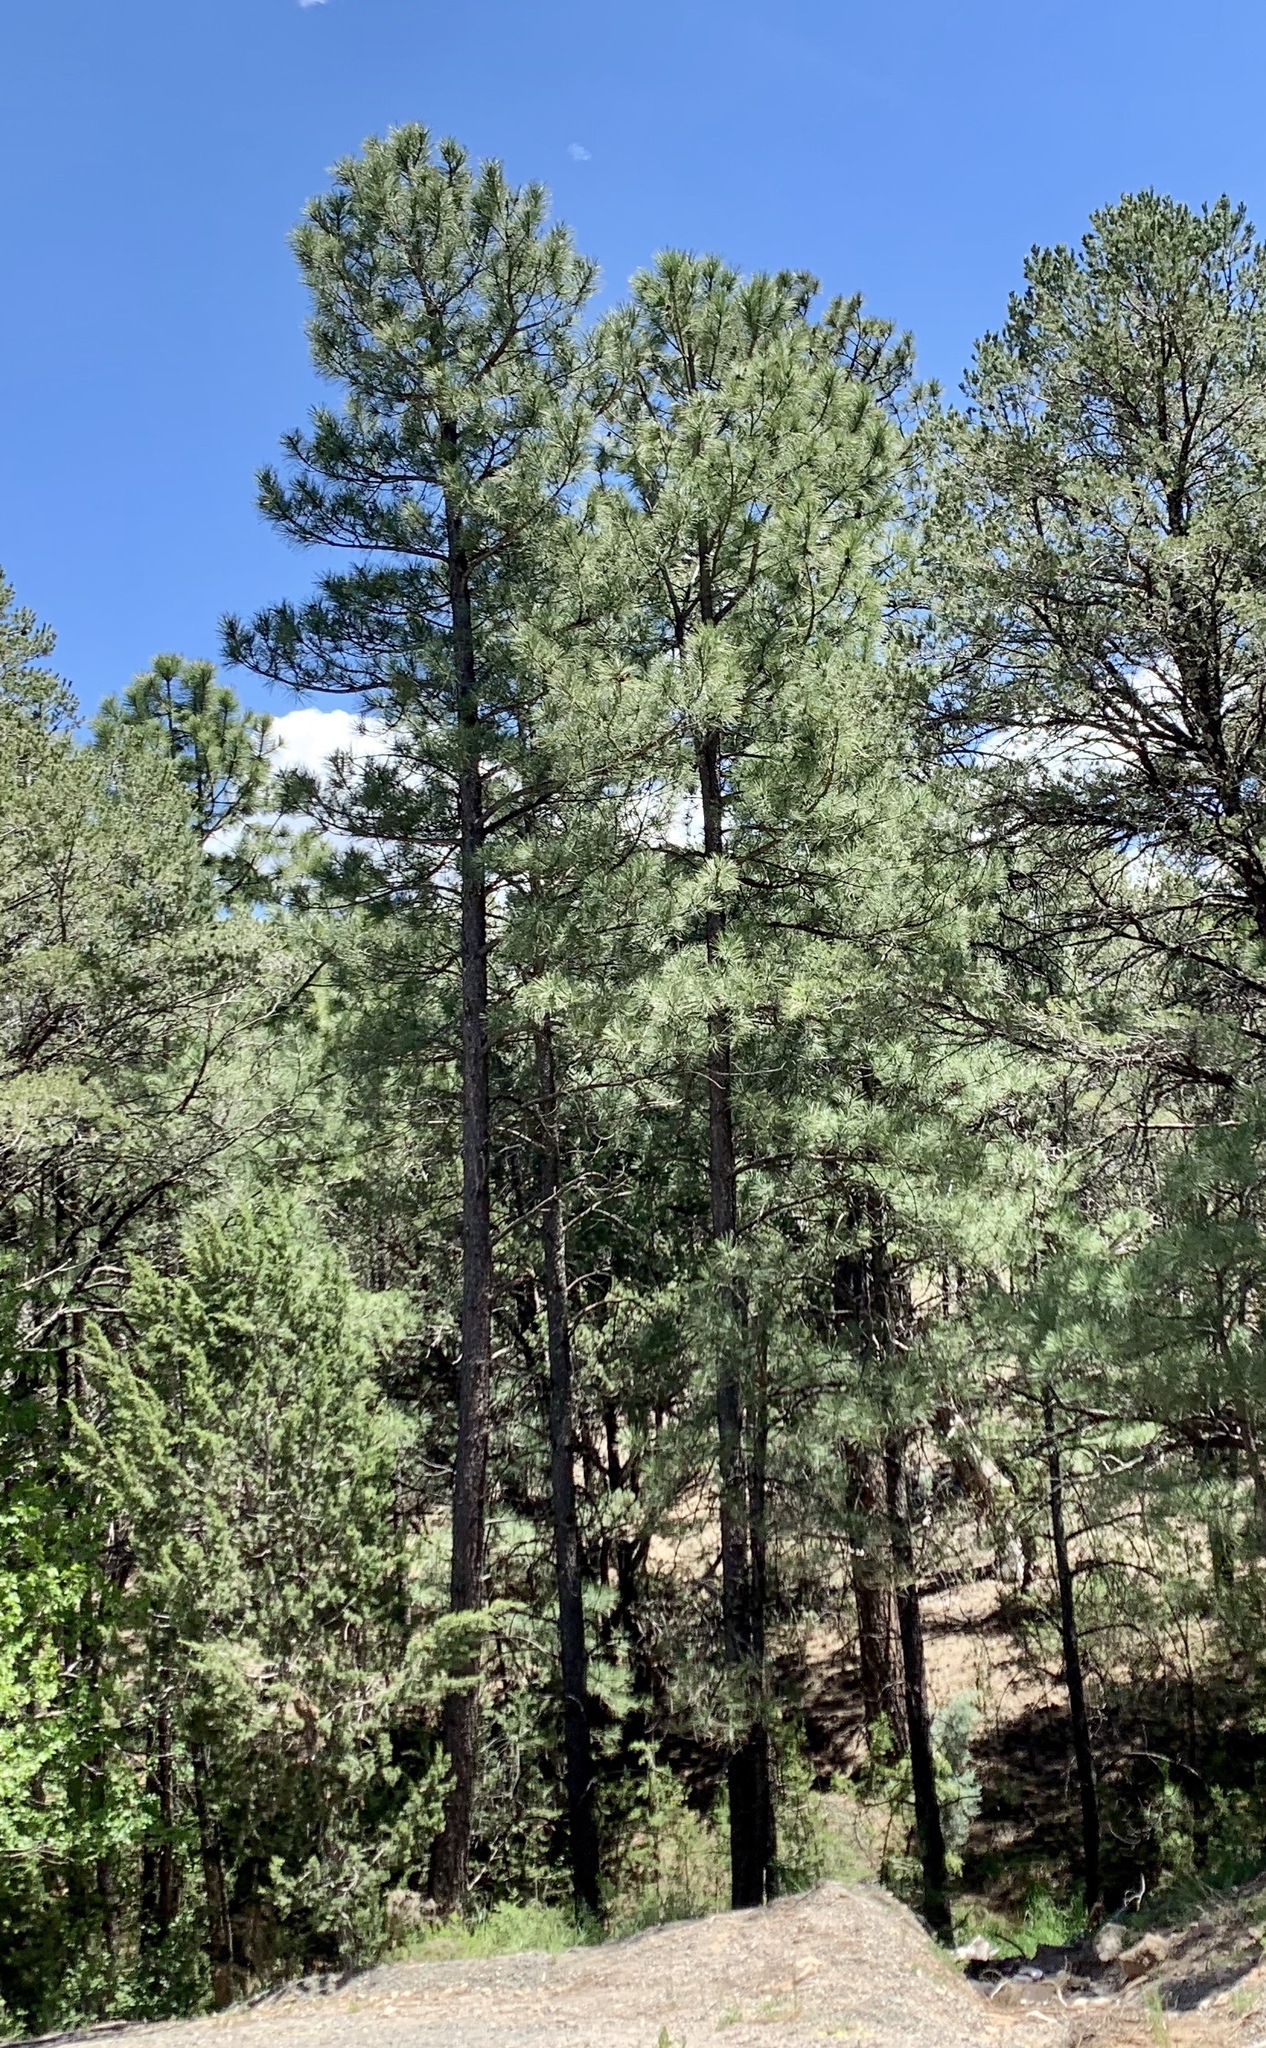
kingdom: Plantae
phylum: Tracheophyta
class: Pinopsida
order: Pinales
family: Pinaceae
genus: Pinus
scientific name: Pinus ponderosa
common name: Western yellow-pine
